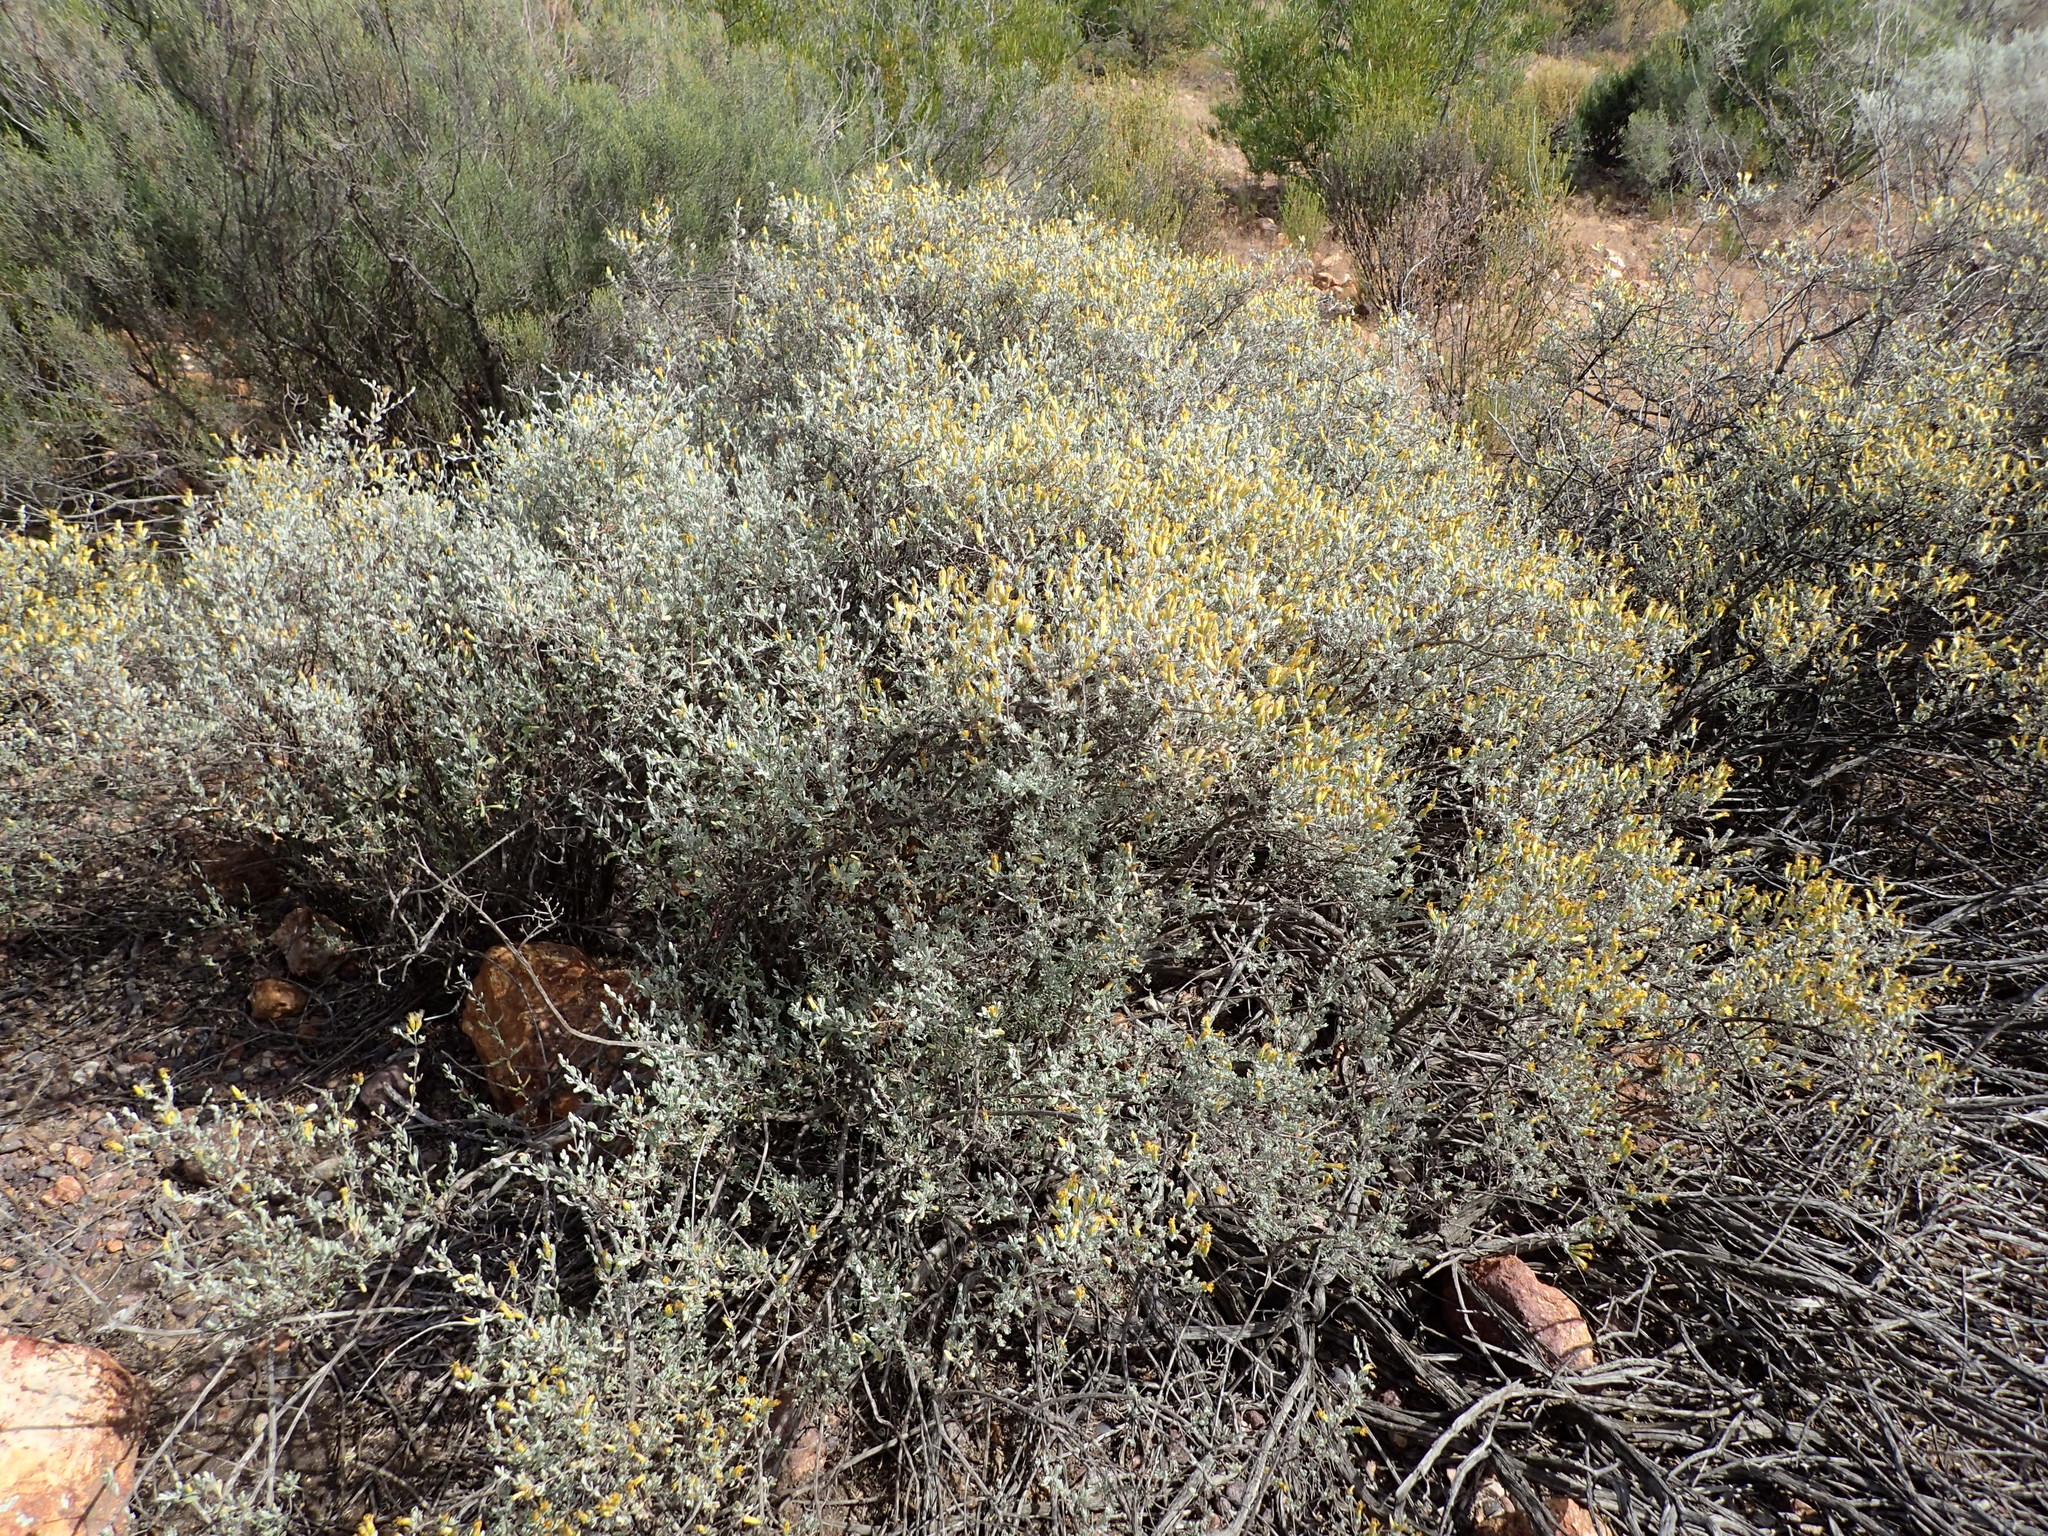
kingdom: Plantae
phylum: Tracheophyta
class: Magnoliopsida
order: Asterales
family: Asteraceae
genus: Pteronia
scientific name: Pteronia incana
